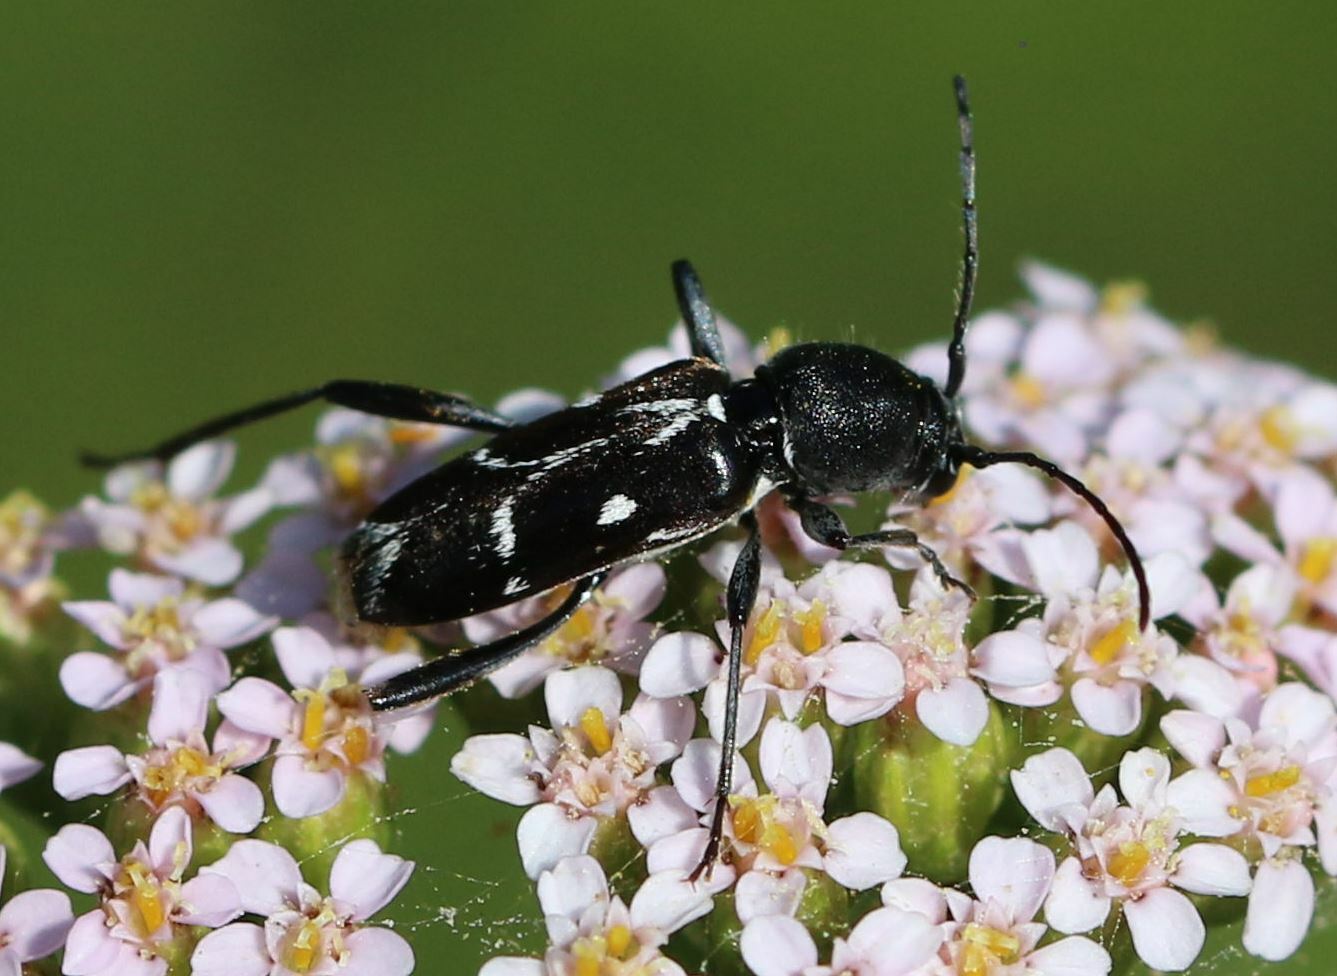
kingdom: Animalia
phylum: Arthropoda
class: Insecta
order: Coleoptera
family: Cerambycidae
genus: Chlorophorus
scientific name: Chlorophorus sartor
